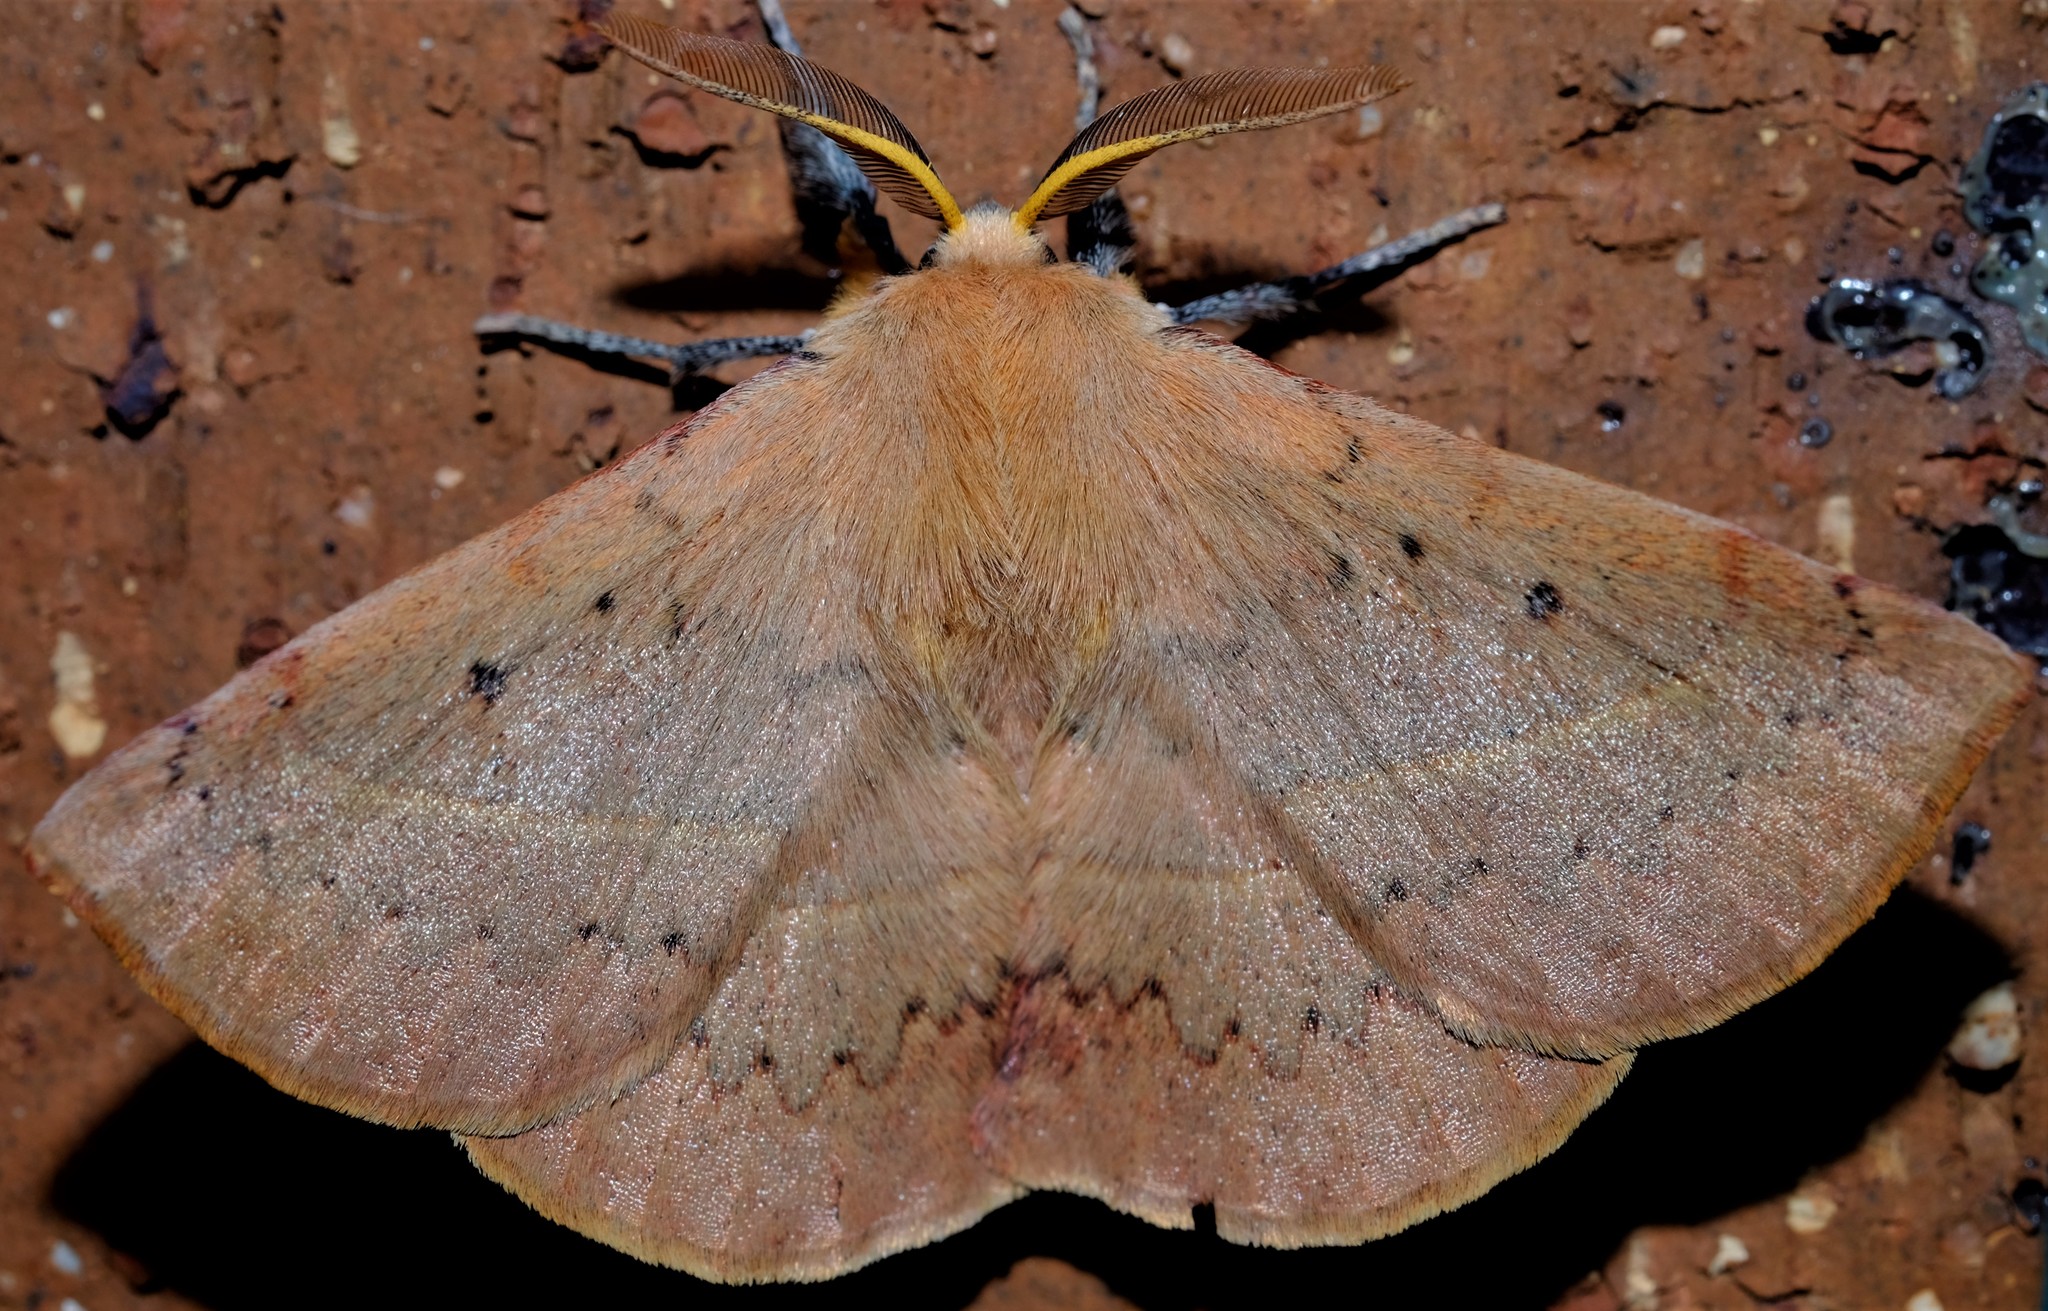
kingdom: Animalia
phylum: Arthropoda
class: Insecta
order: Lepidoptera
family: Anthelidae
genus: Anthela
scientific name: Anthela acuta
